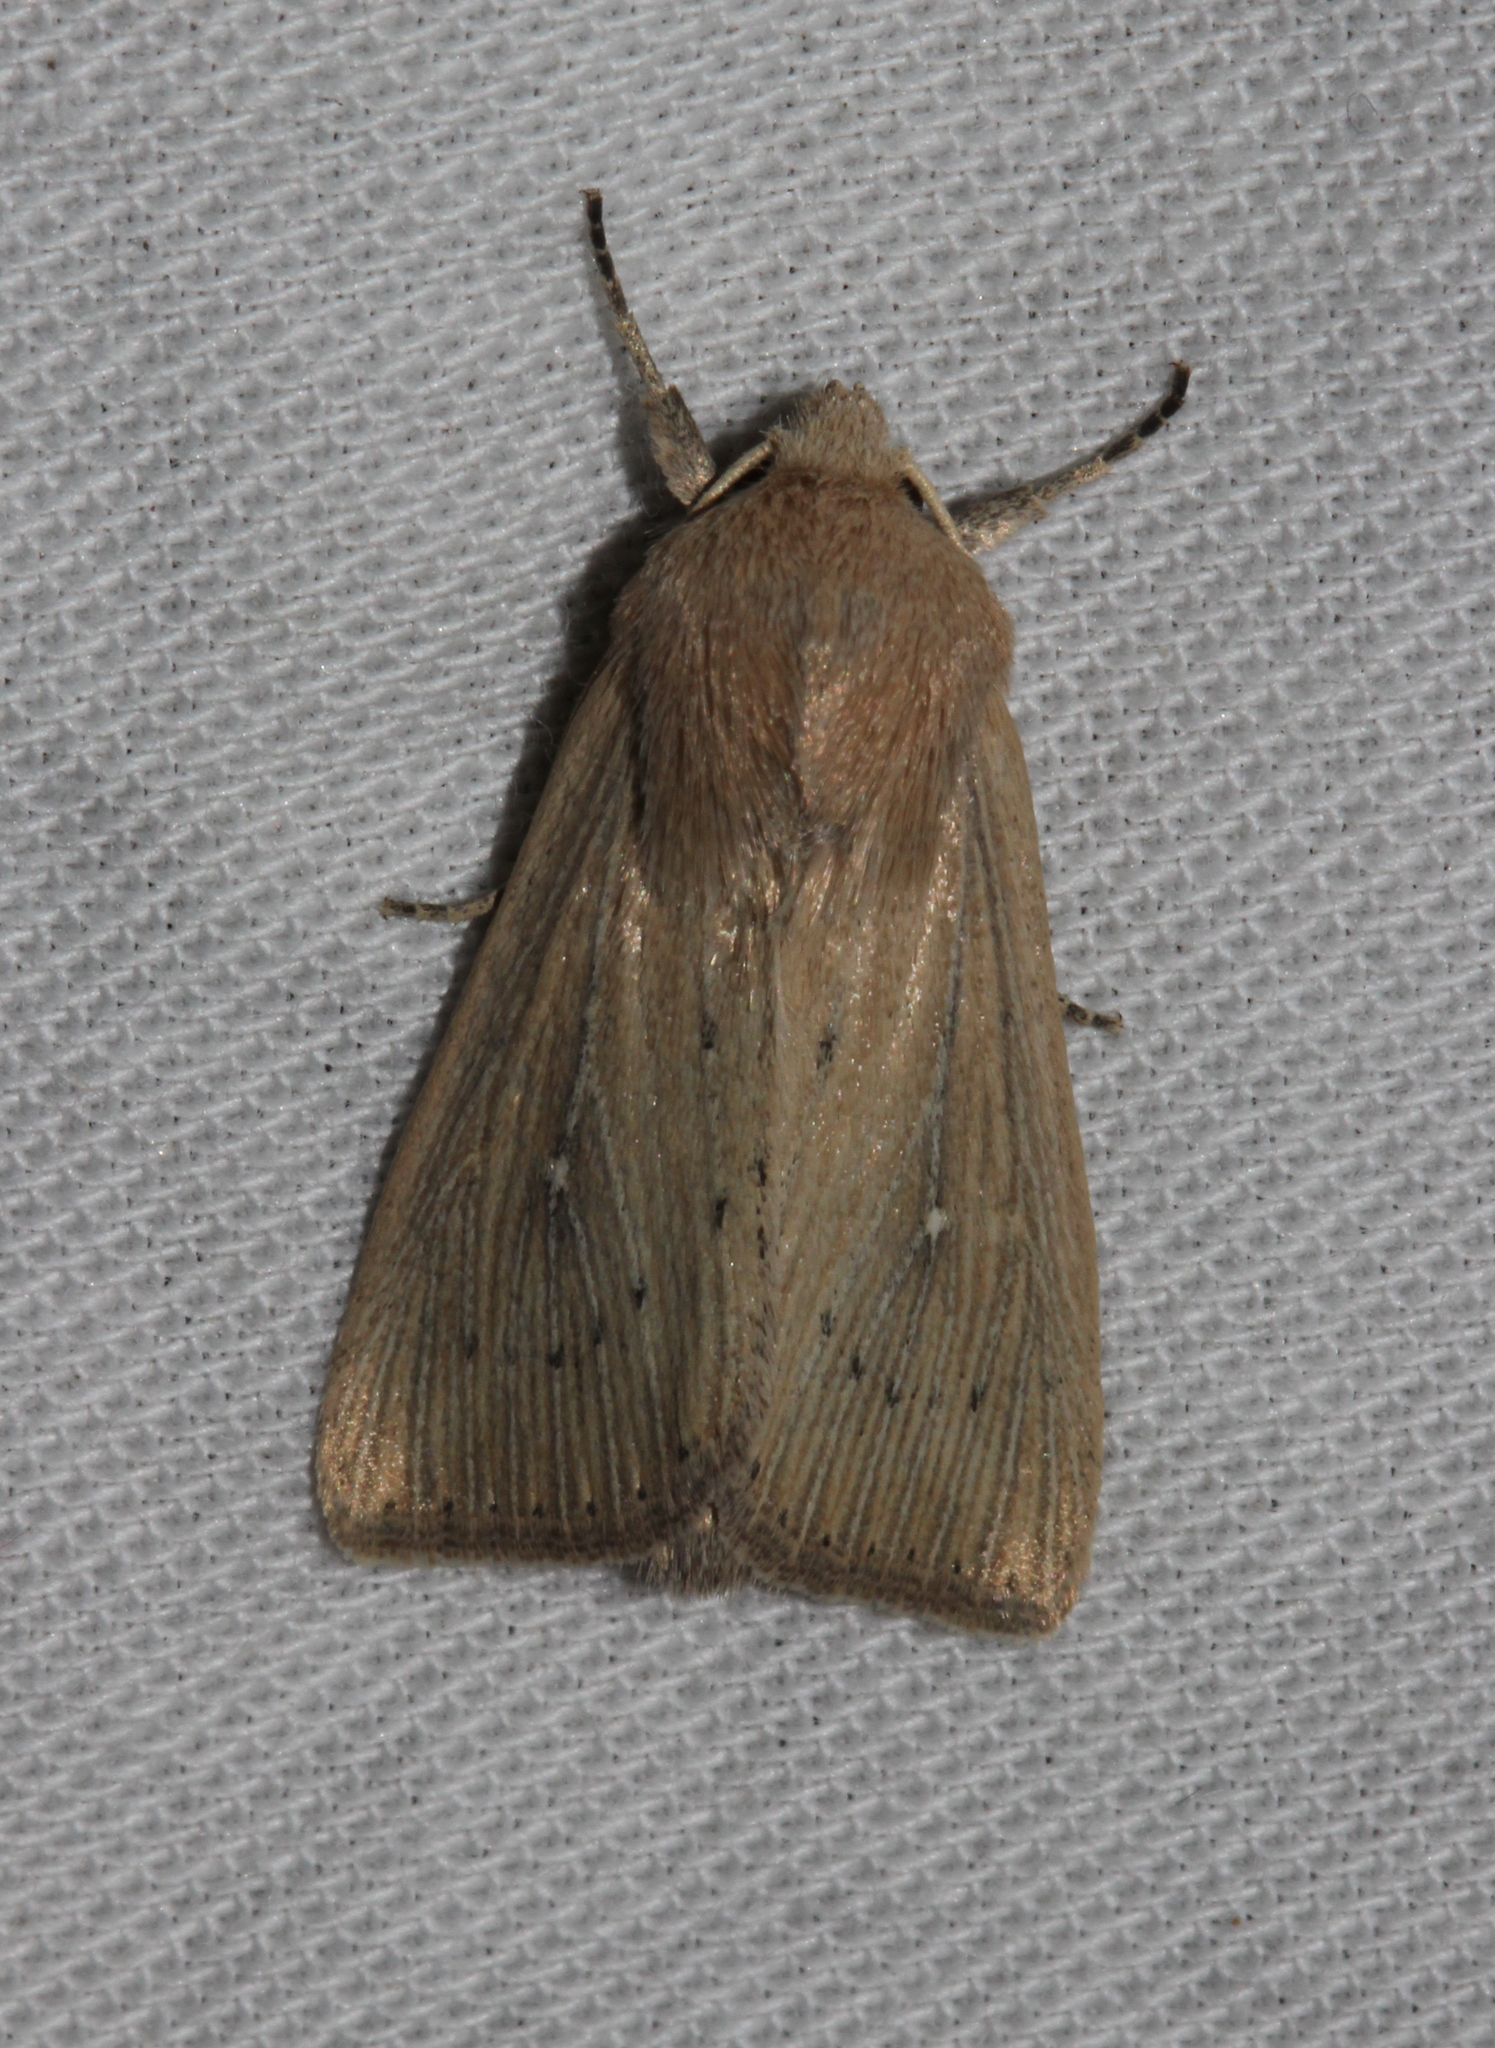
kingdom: Animalia
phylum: Arthropoda
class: Insecta
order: Lepidoptera
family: Noctuidae
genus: Leucania
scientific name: Leucania obsoleta
